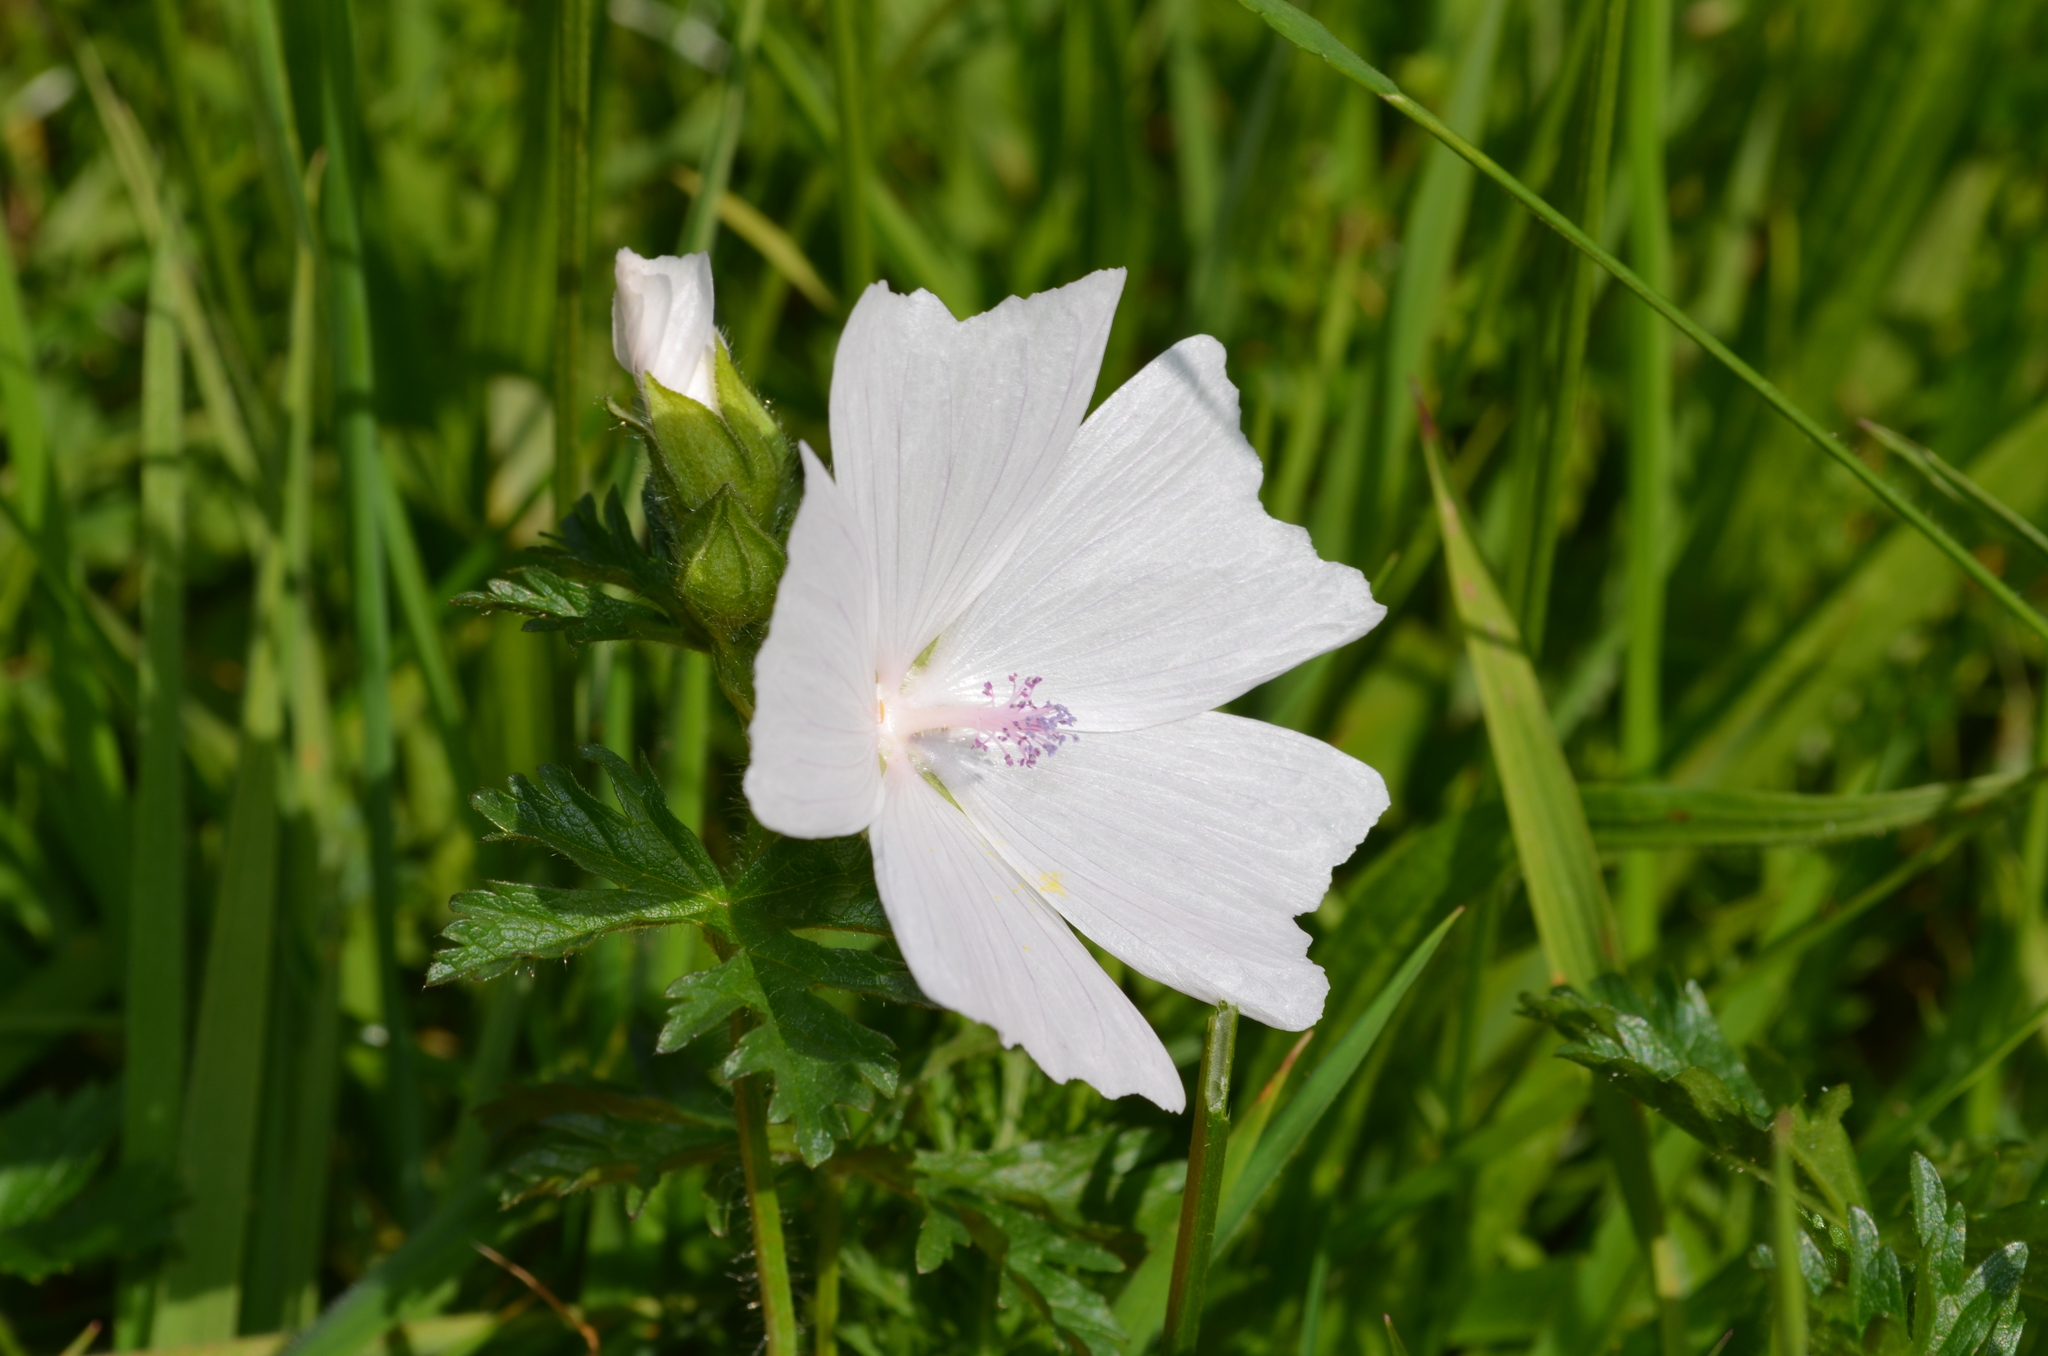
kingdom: Plantae
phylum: Tracheophyta
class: Magnoliopsida
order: Malvales
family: Malvaceae
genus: Malva
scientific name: Malva moschata
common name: Musk mallow
